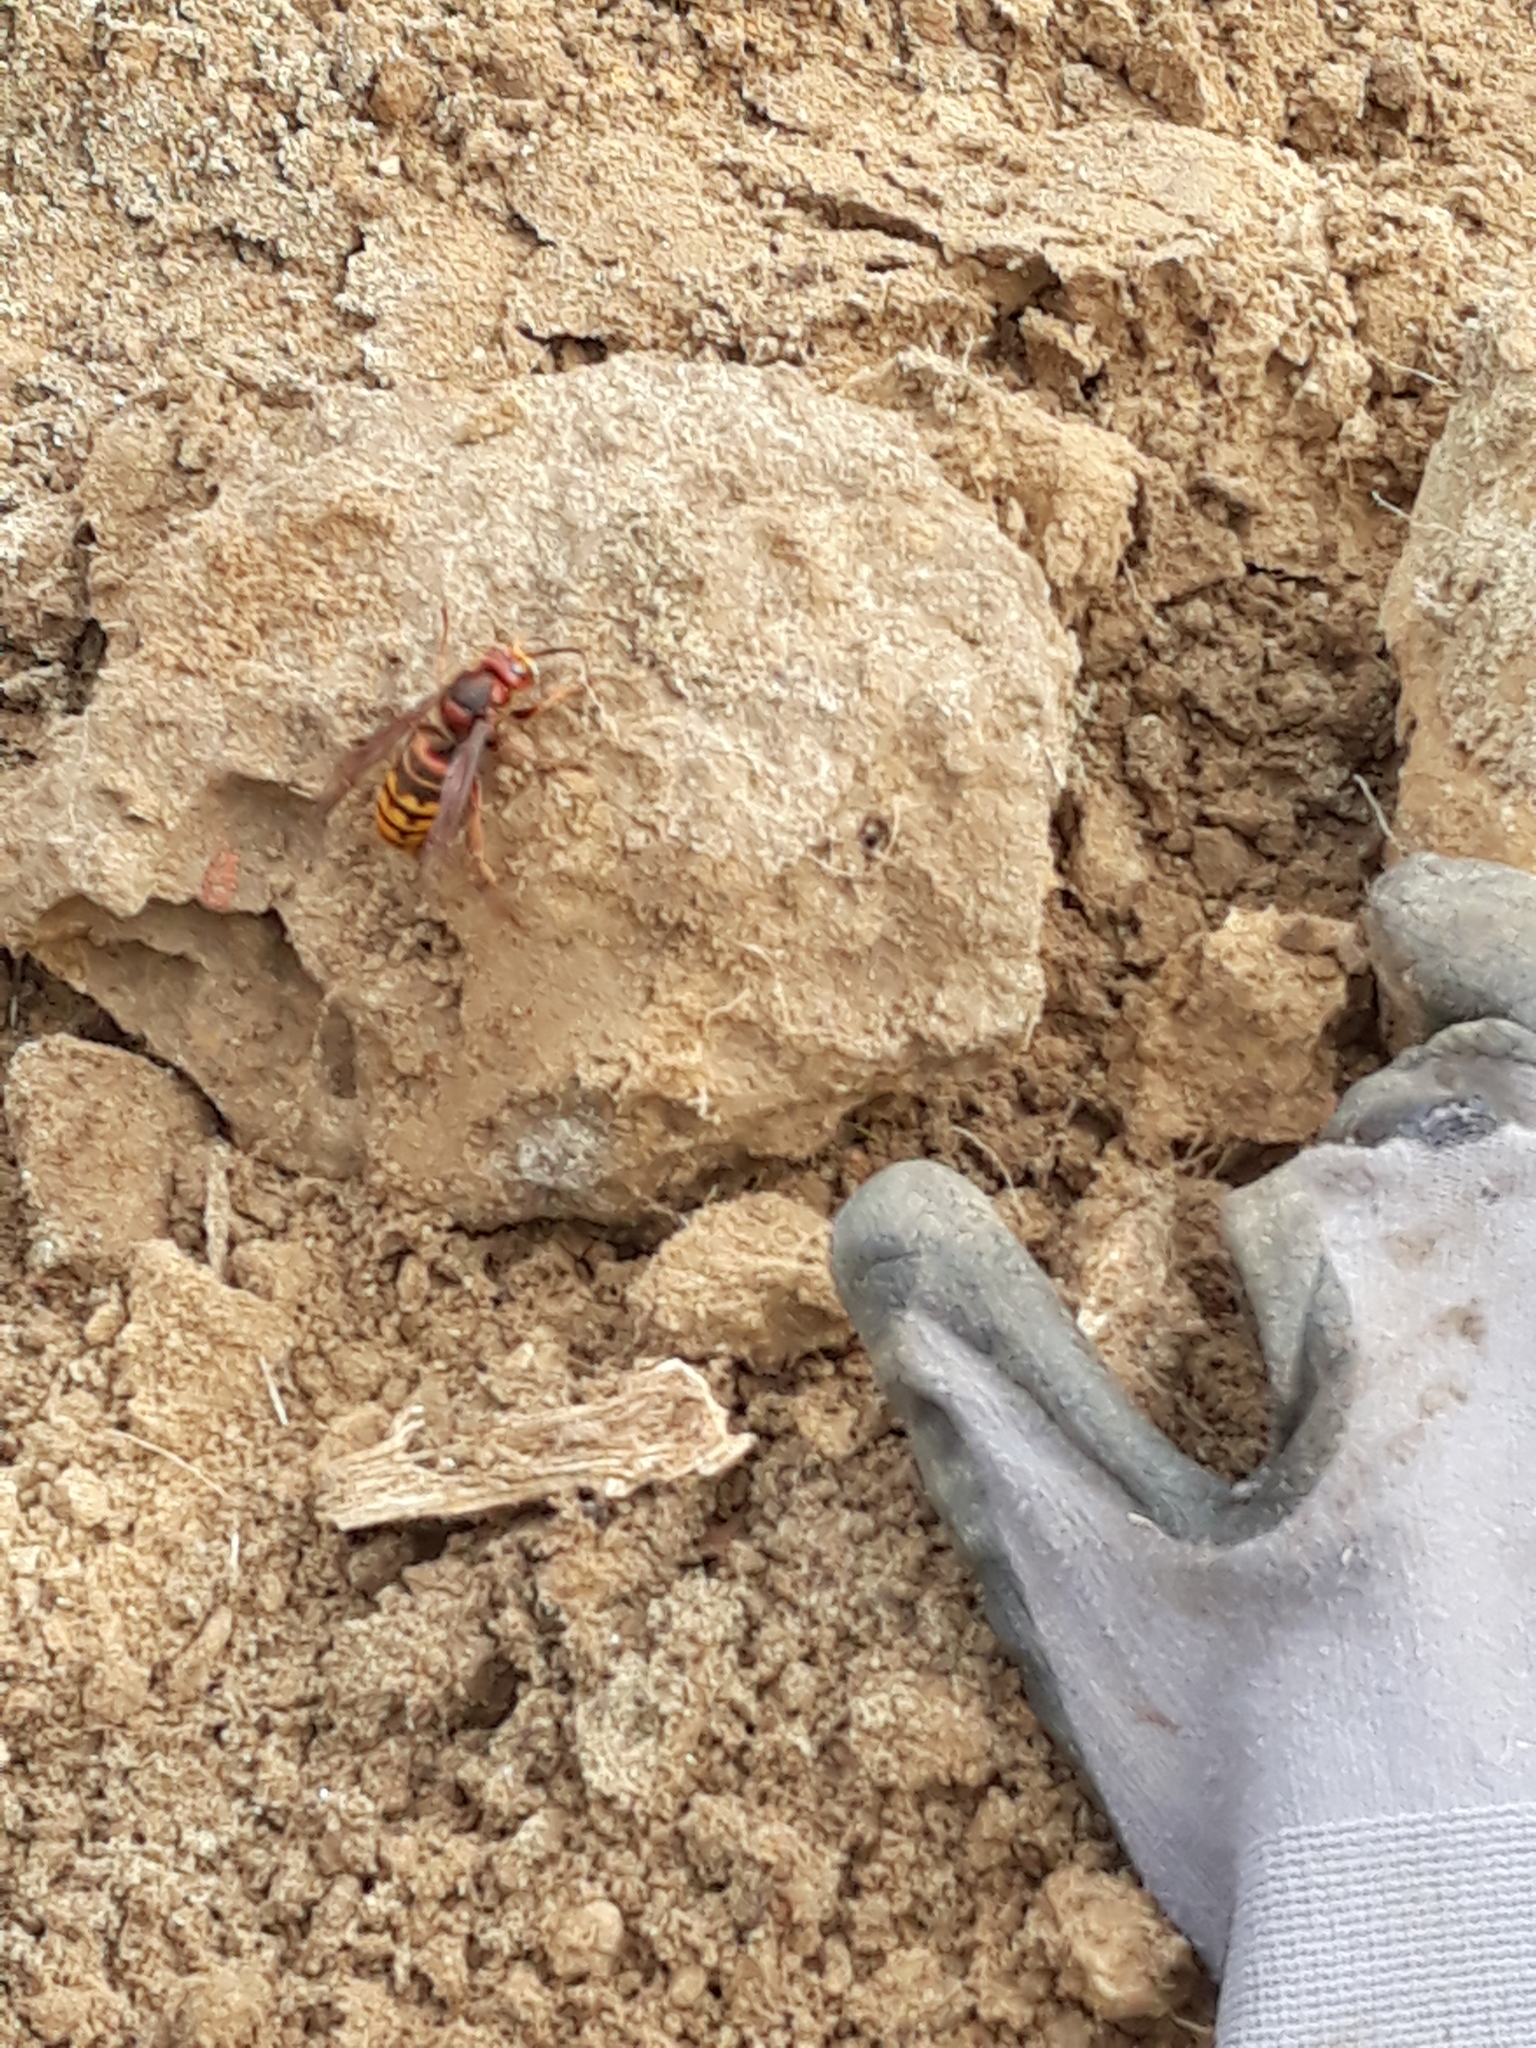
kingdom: Animalia
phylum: Arthropoda
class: Insecta
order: Hymenoptera
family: Vespidae
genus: Vespa
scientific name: Vespa crabro
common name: Hornet
